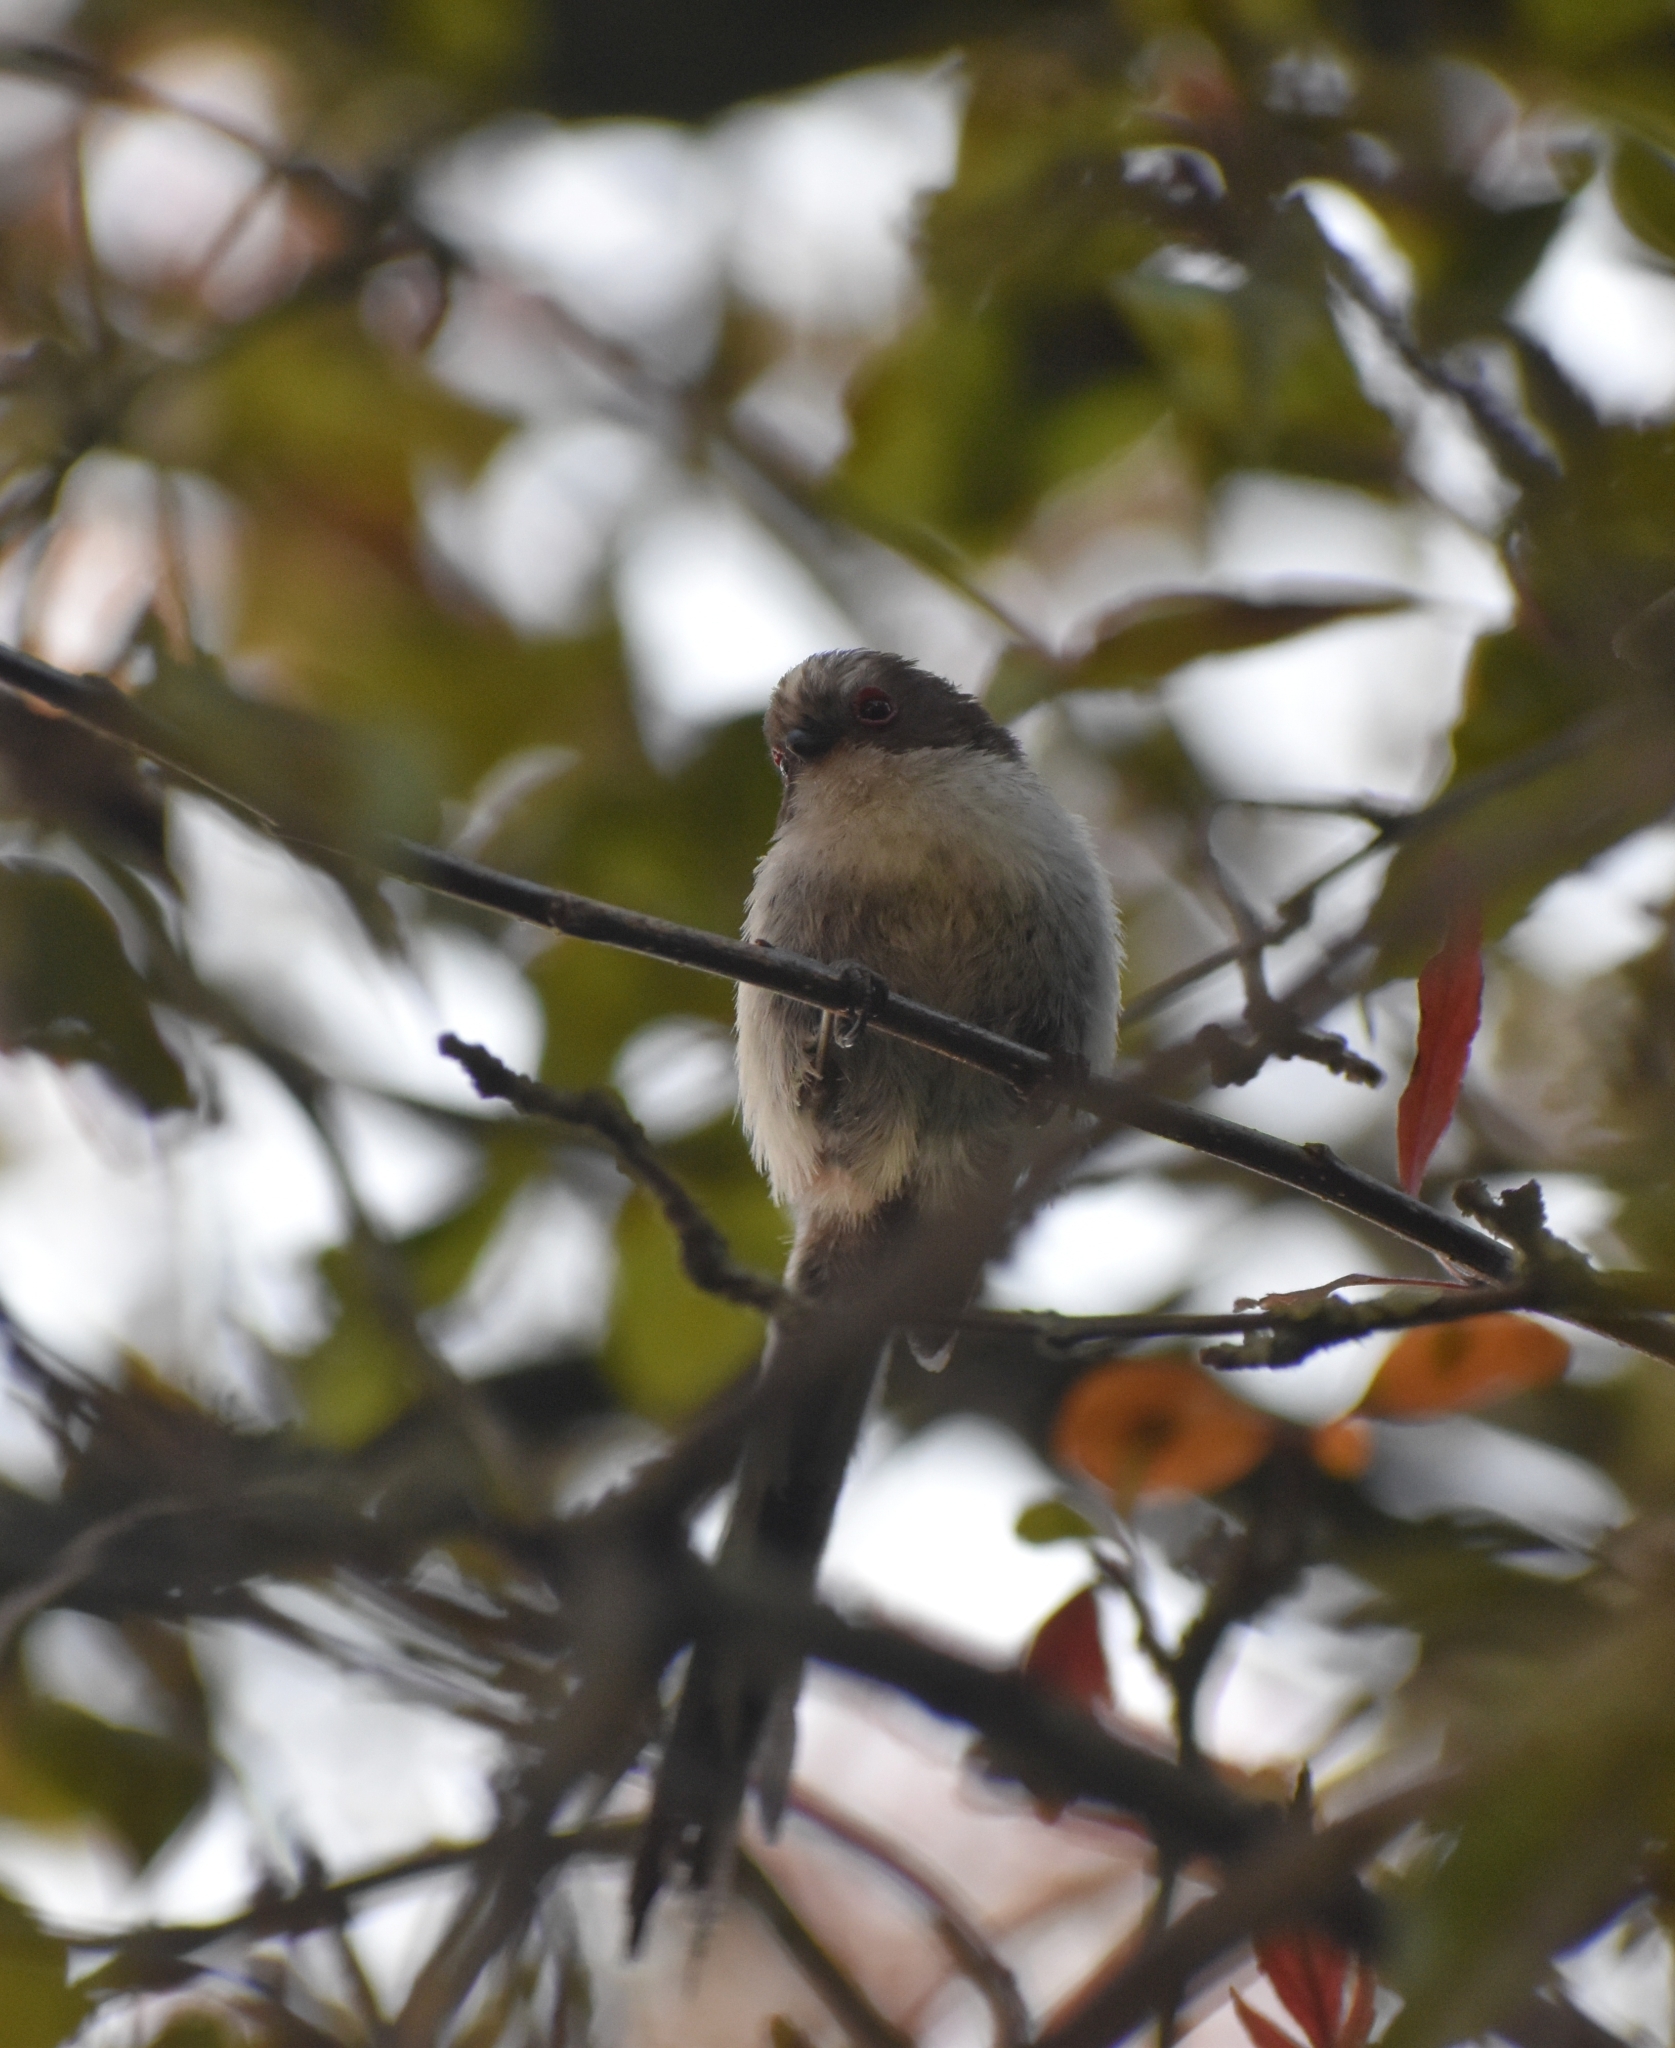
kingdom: Animalia
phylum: Chordata
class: Aves
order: Passeriformes
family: Aegithalidae
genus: Aegithalos
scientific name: Aegithalos caudatus
